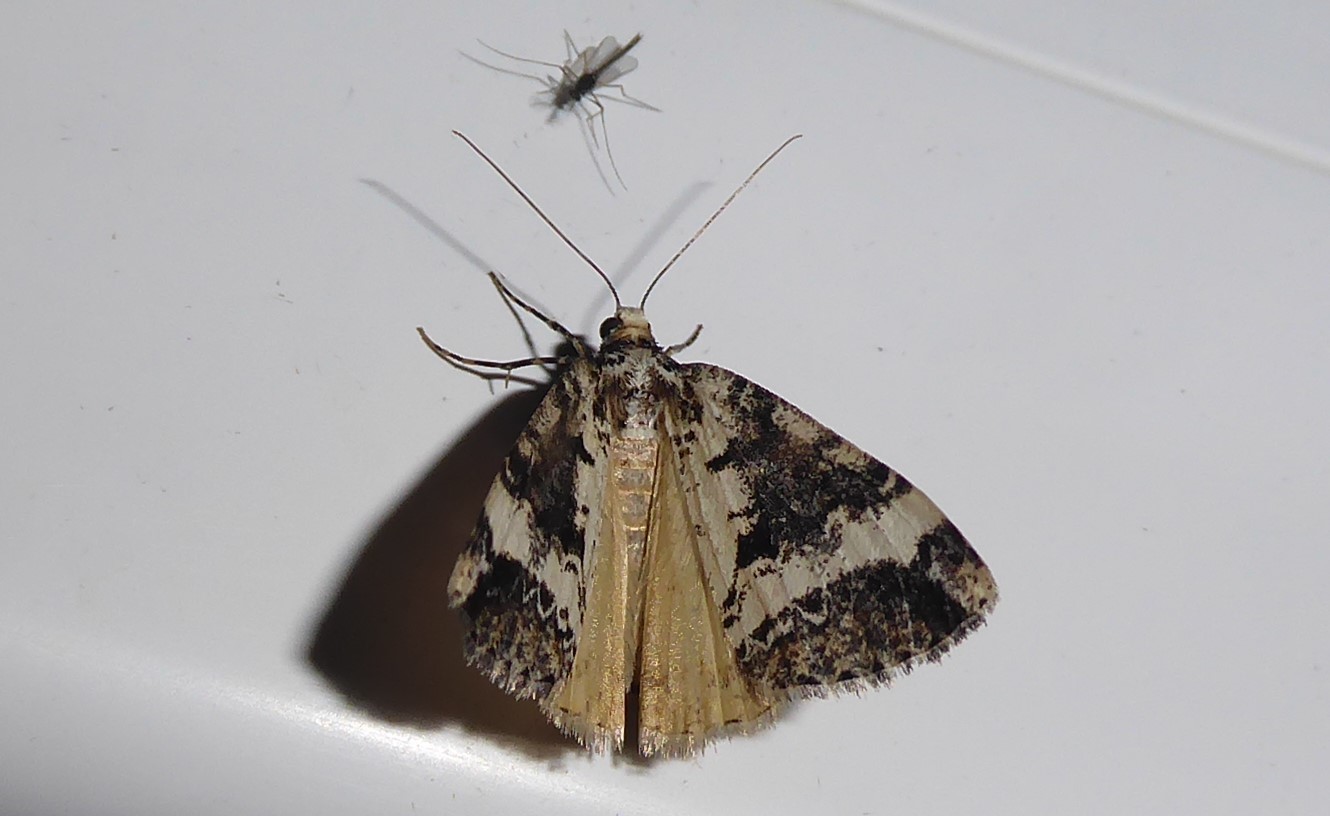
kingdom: Animalia
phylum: Arthropoda
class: Insecta
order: Lepidoptera
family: Geometridae
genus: Pseudocoremia
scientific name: Pseudocoremia leucelaea
